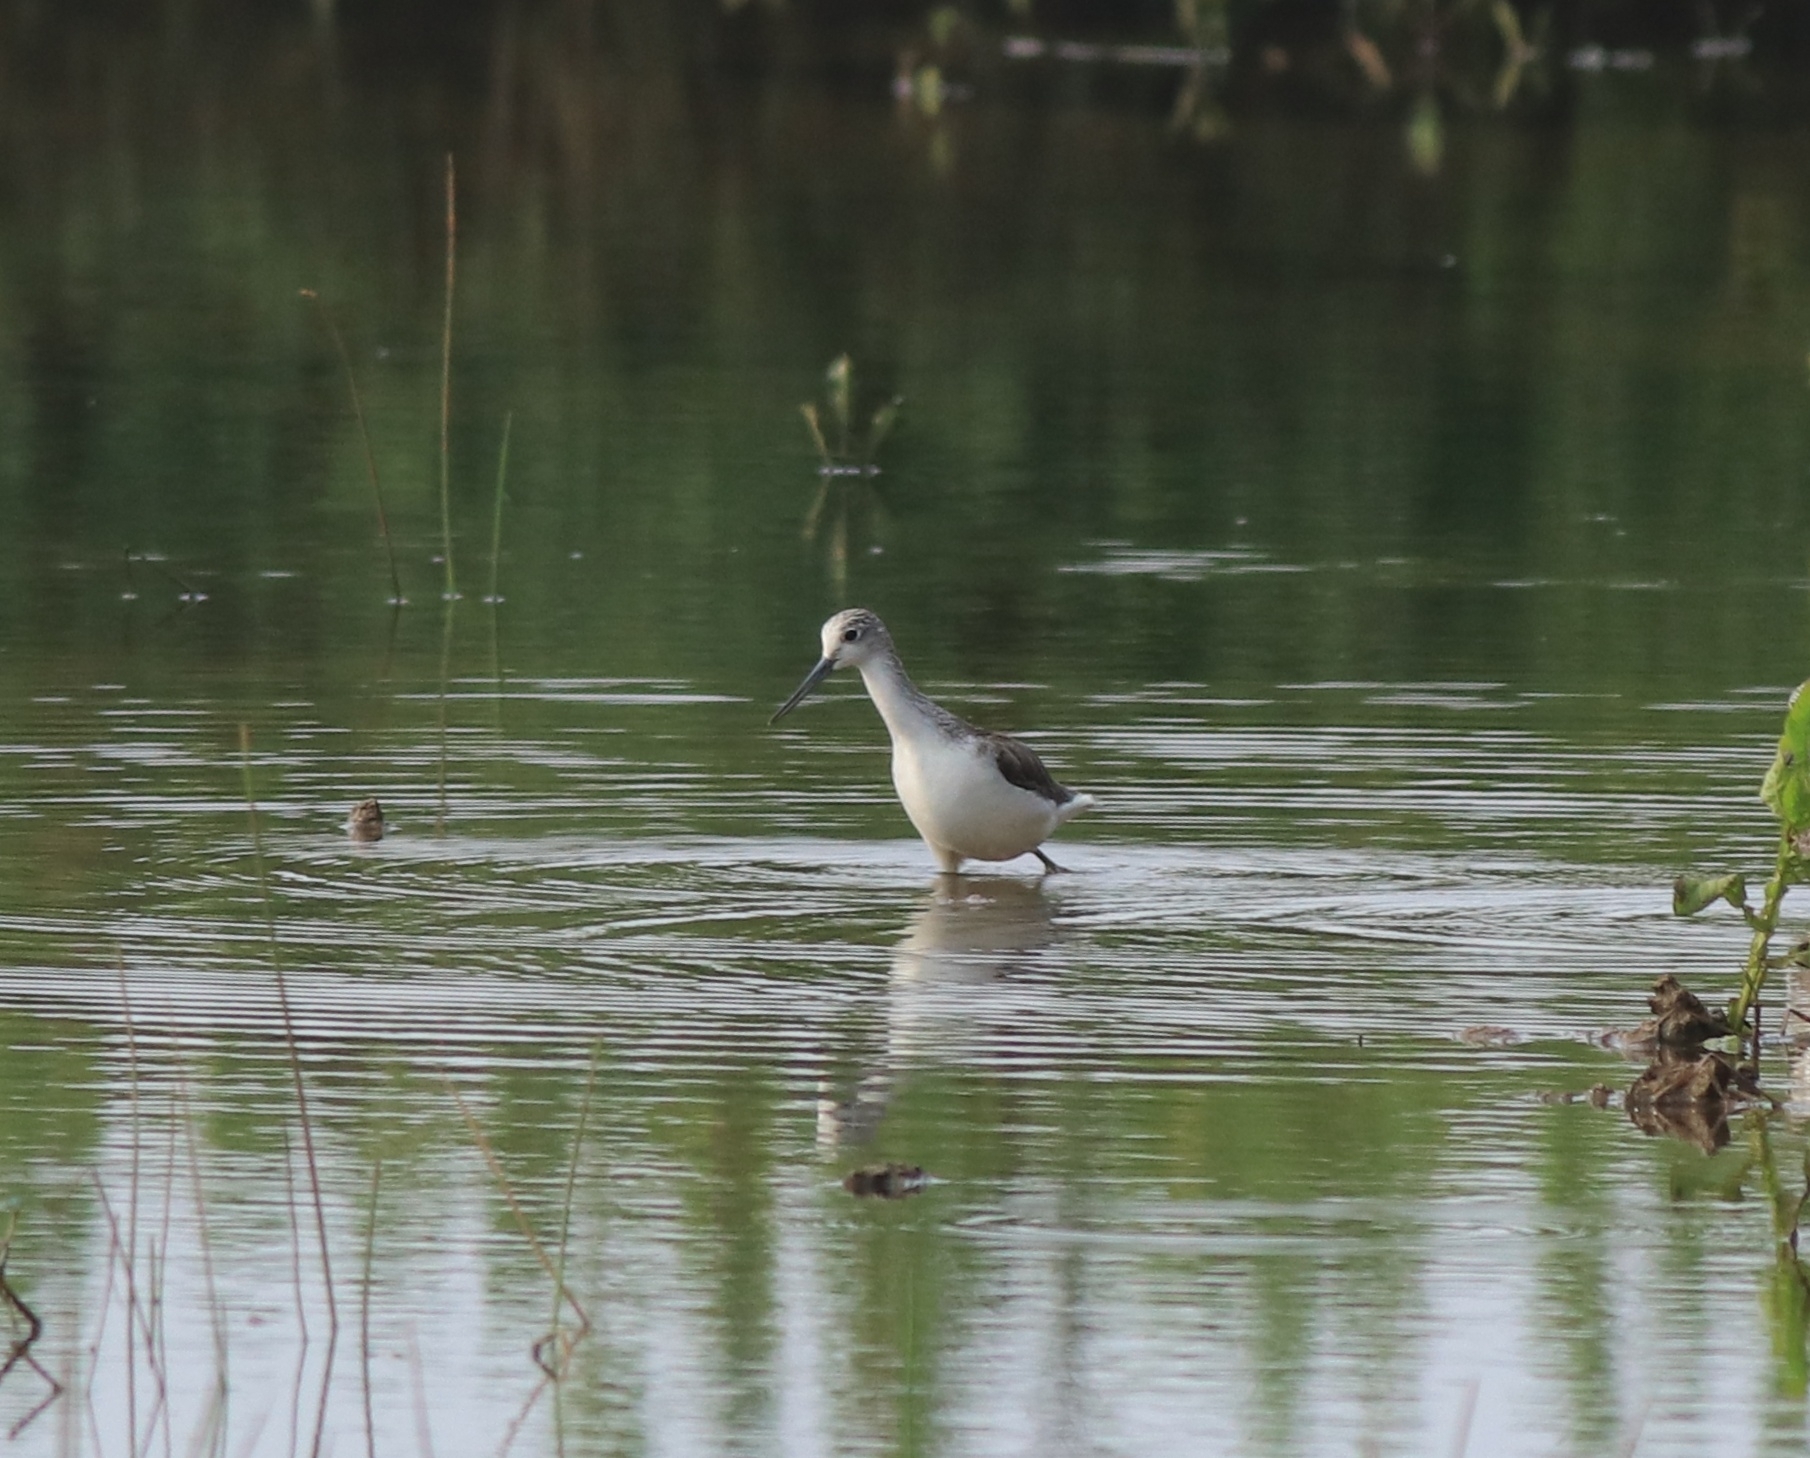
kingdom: Animalia
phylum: Chordata
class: Aves
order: Charadriiformes
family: Scolopacidae
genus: Tringa
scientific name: Tringa nebularia
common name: Common greenshank
